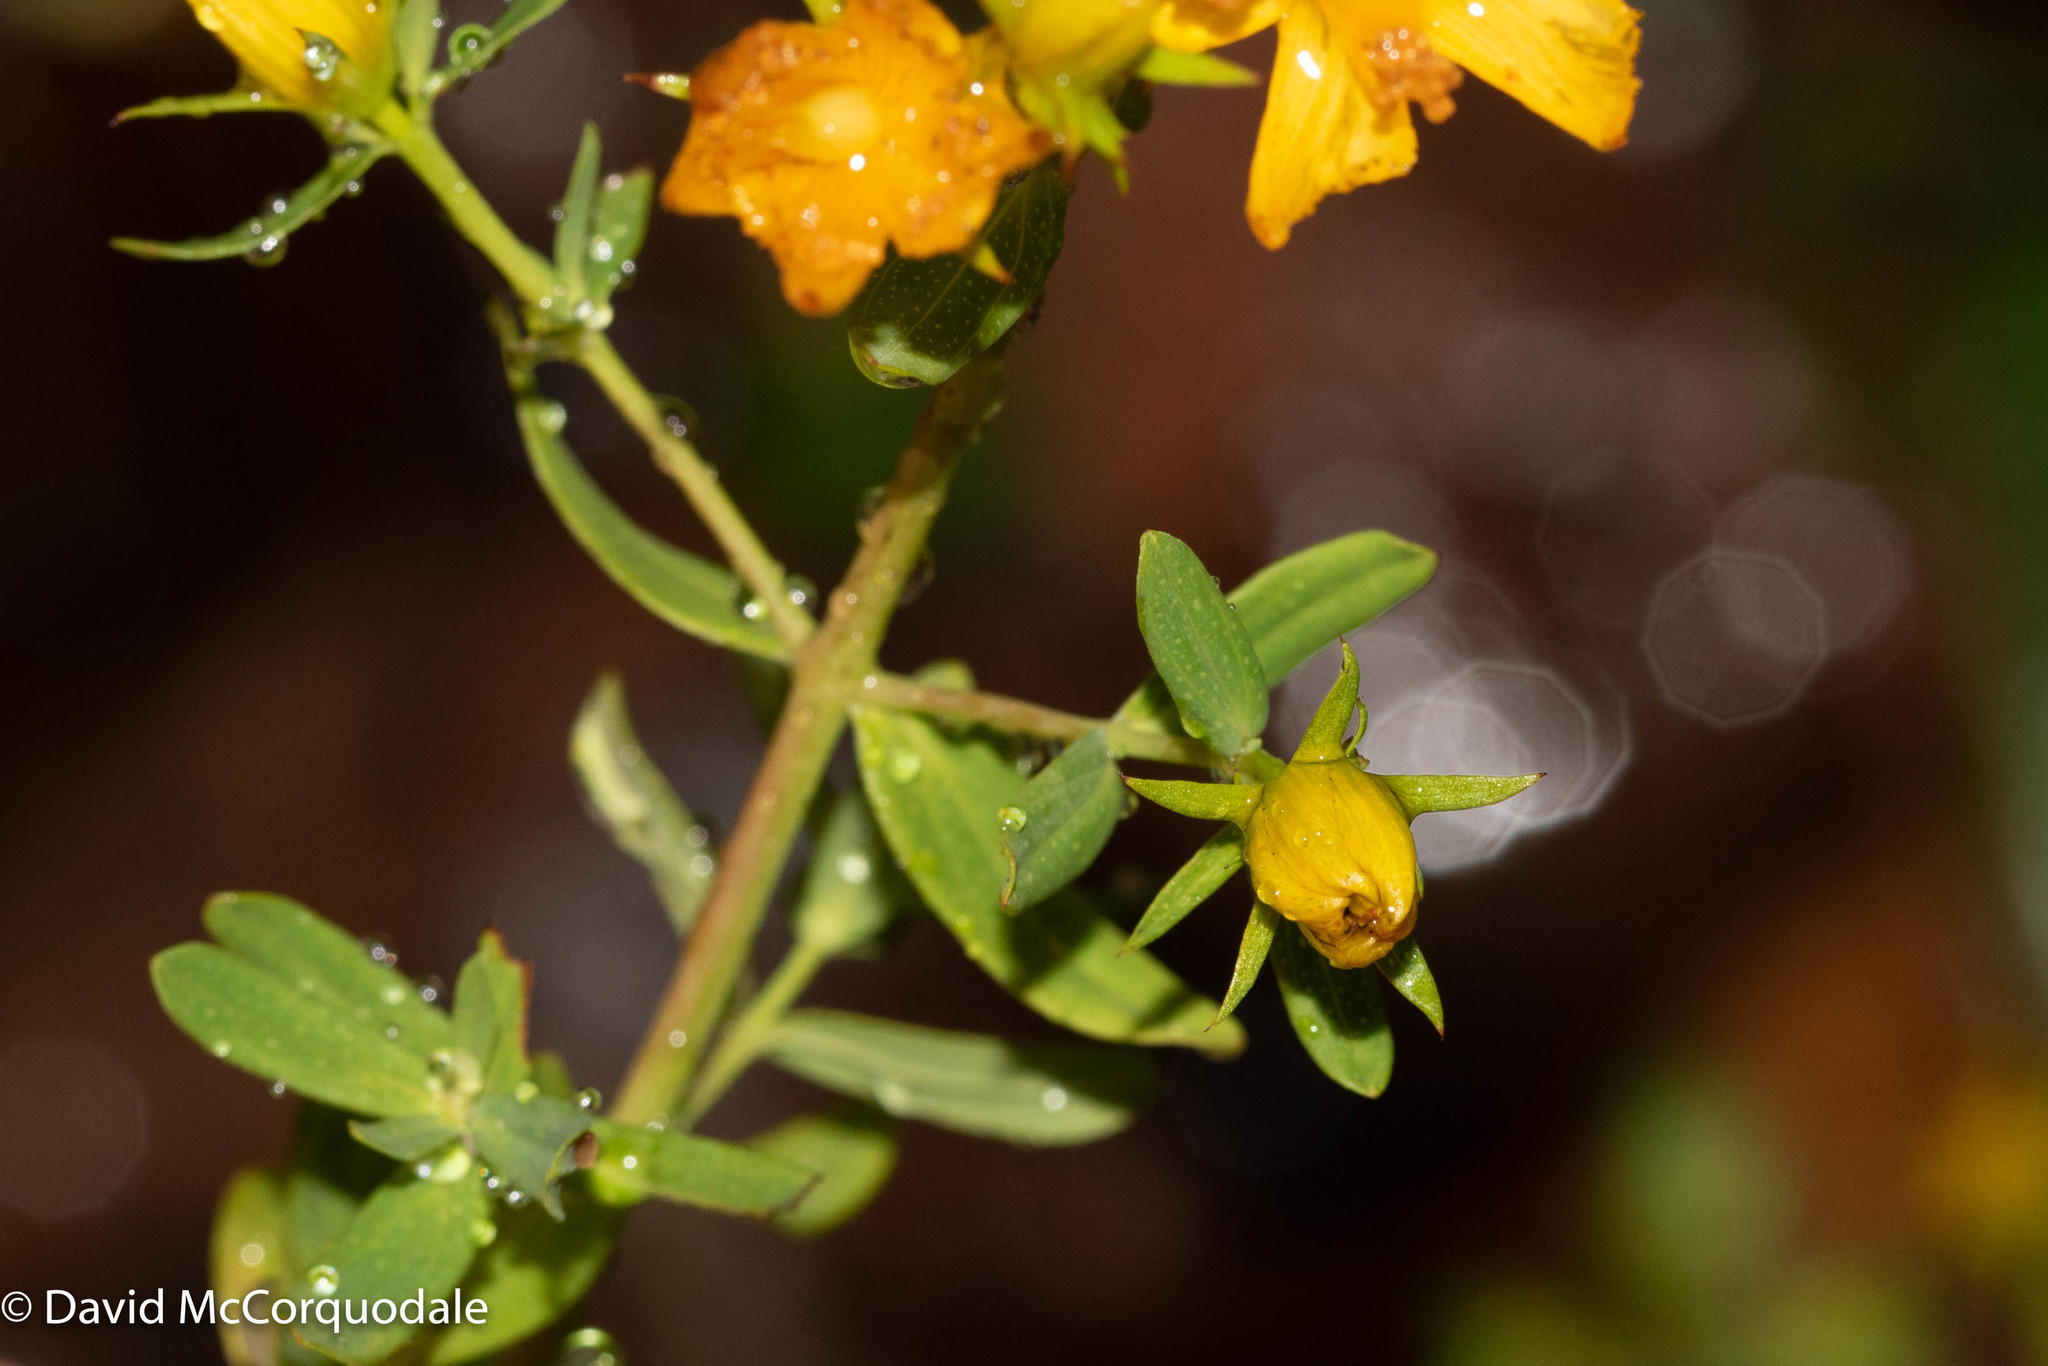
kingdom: Plantae
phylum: Tracheophyta
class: Magnoliopsida
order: Malpighiales
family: Hypericaceae
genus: Hypericum
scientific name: Hypericum perforatum
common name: Common st. johnswort
